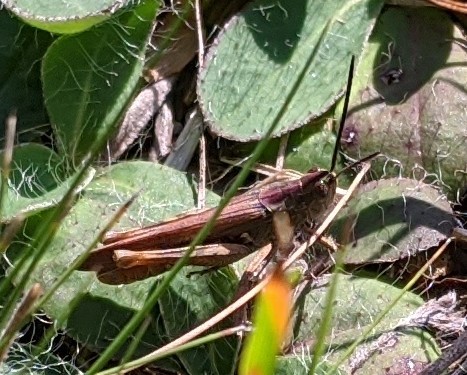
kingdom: Animalia
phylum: Arthropoda
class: Insecta
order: Orthoptera
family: Acrididae
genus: Chorthippus
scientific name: Chorthippus brunneus
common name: Field grasshopper
